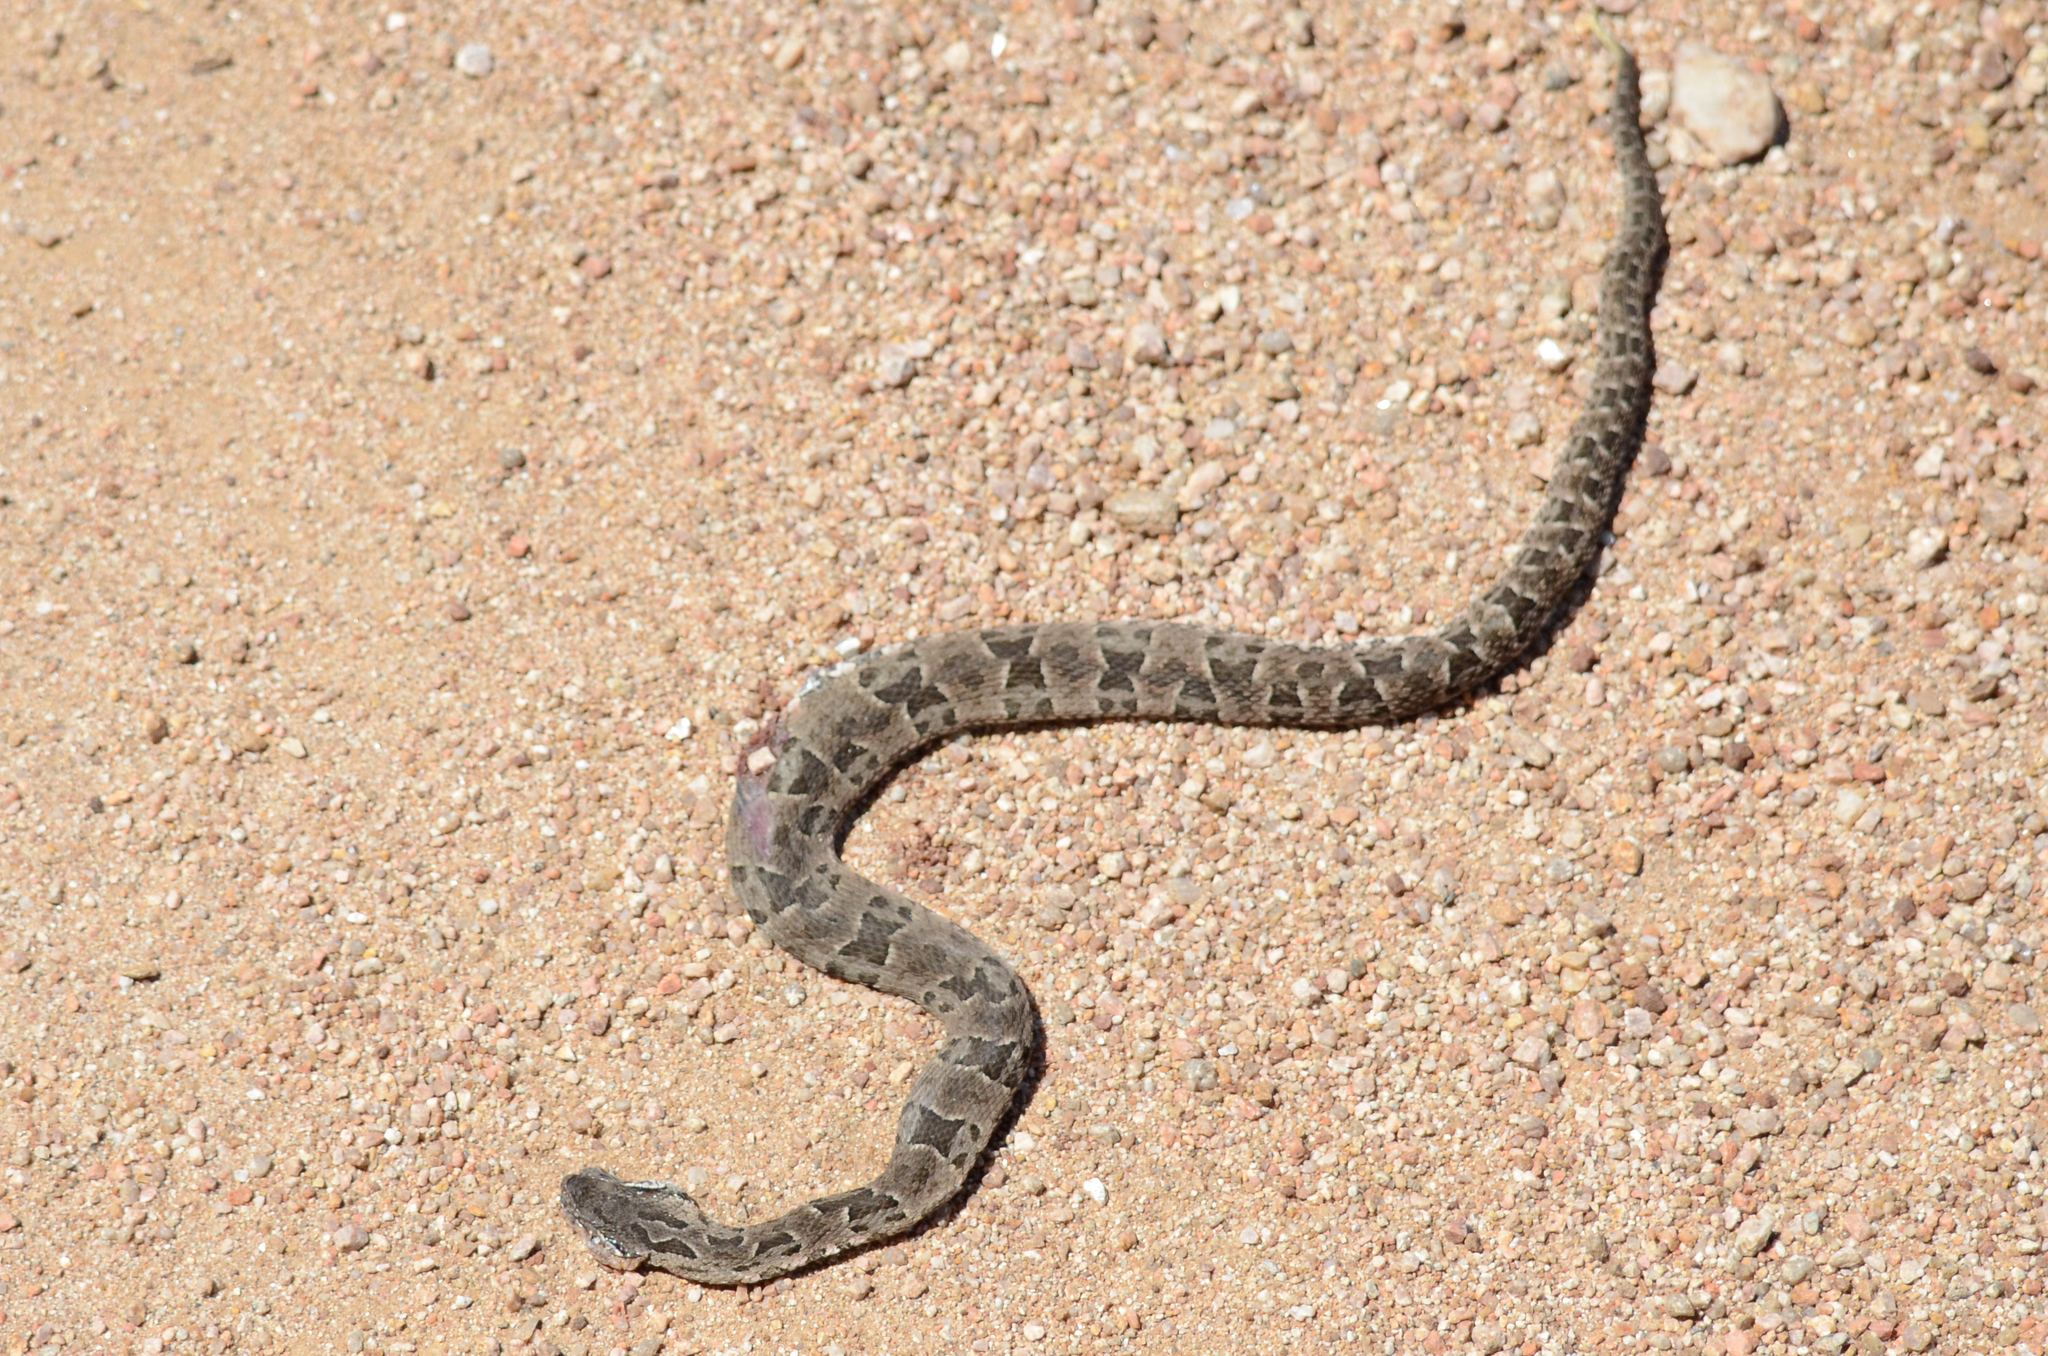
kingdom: Animalia
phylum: Chordata
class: Squamata
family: Viperidae
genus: Bothrops
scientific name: Bothrops pubescens
